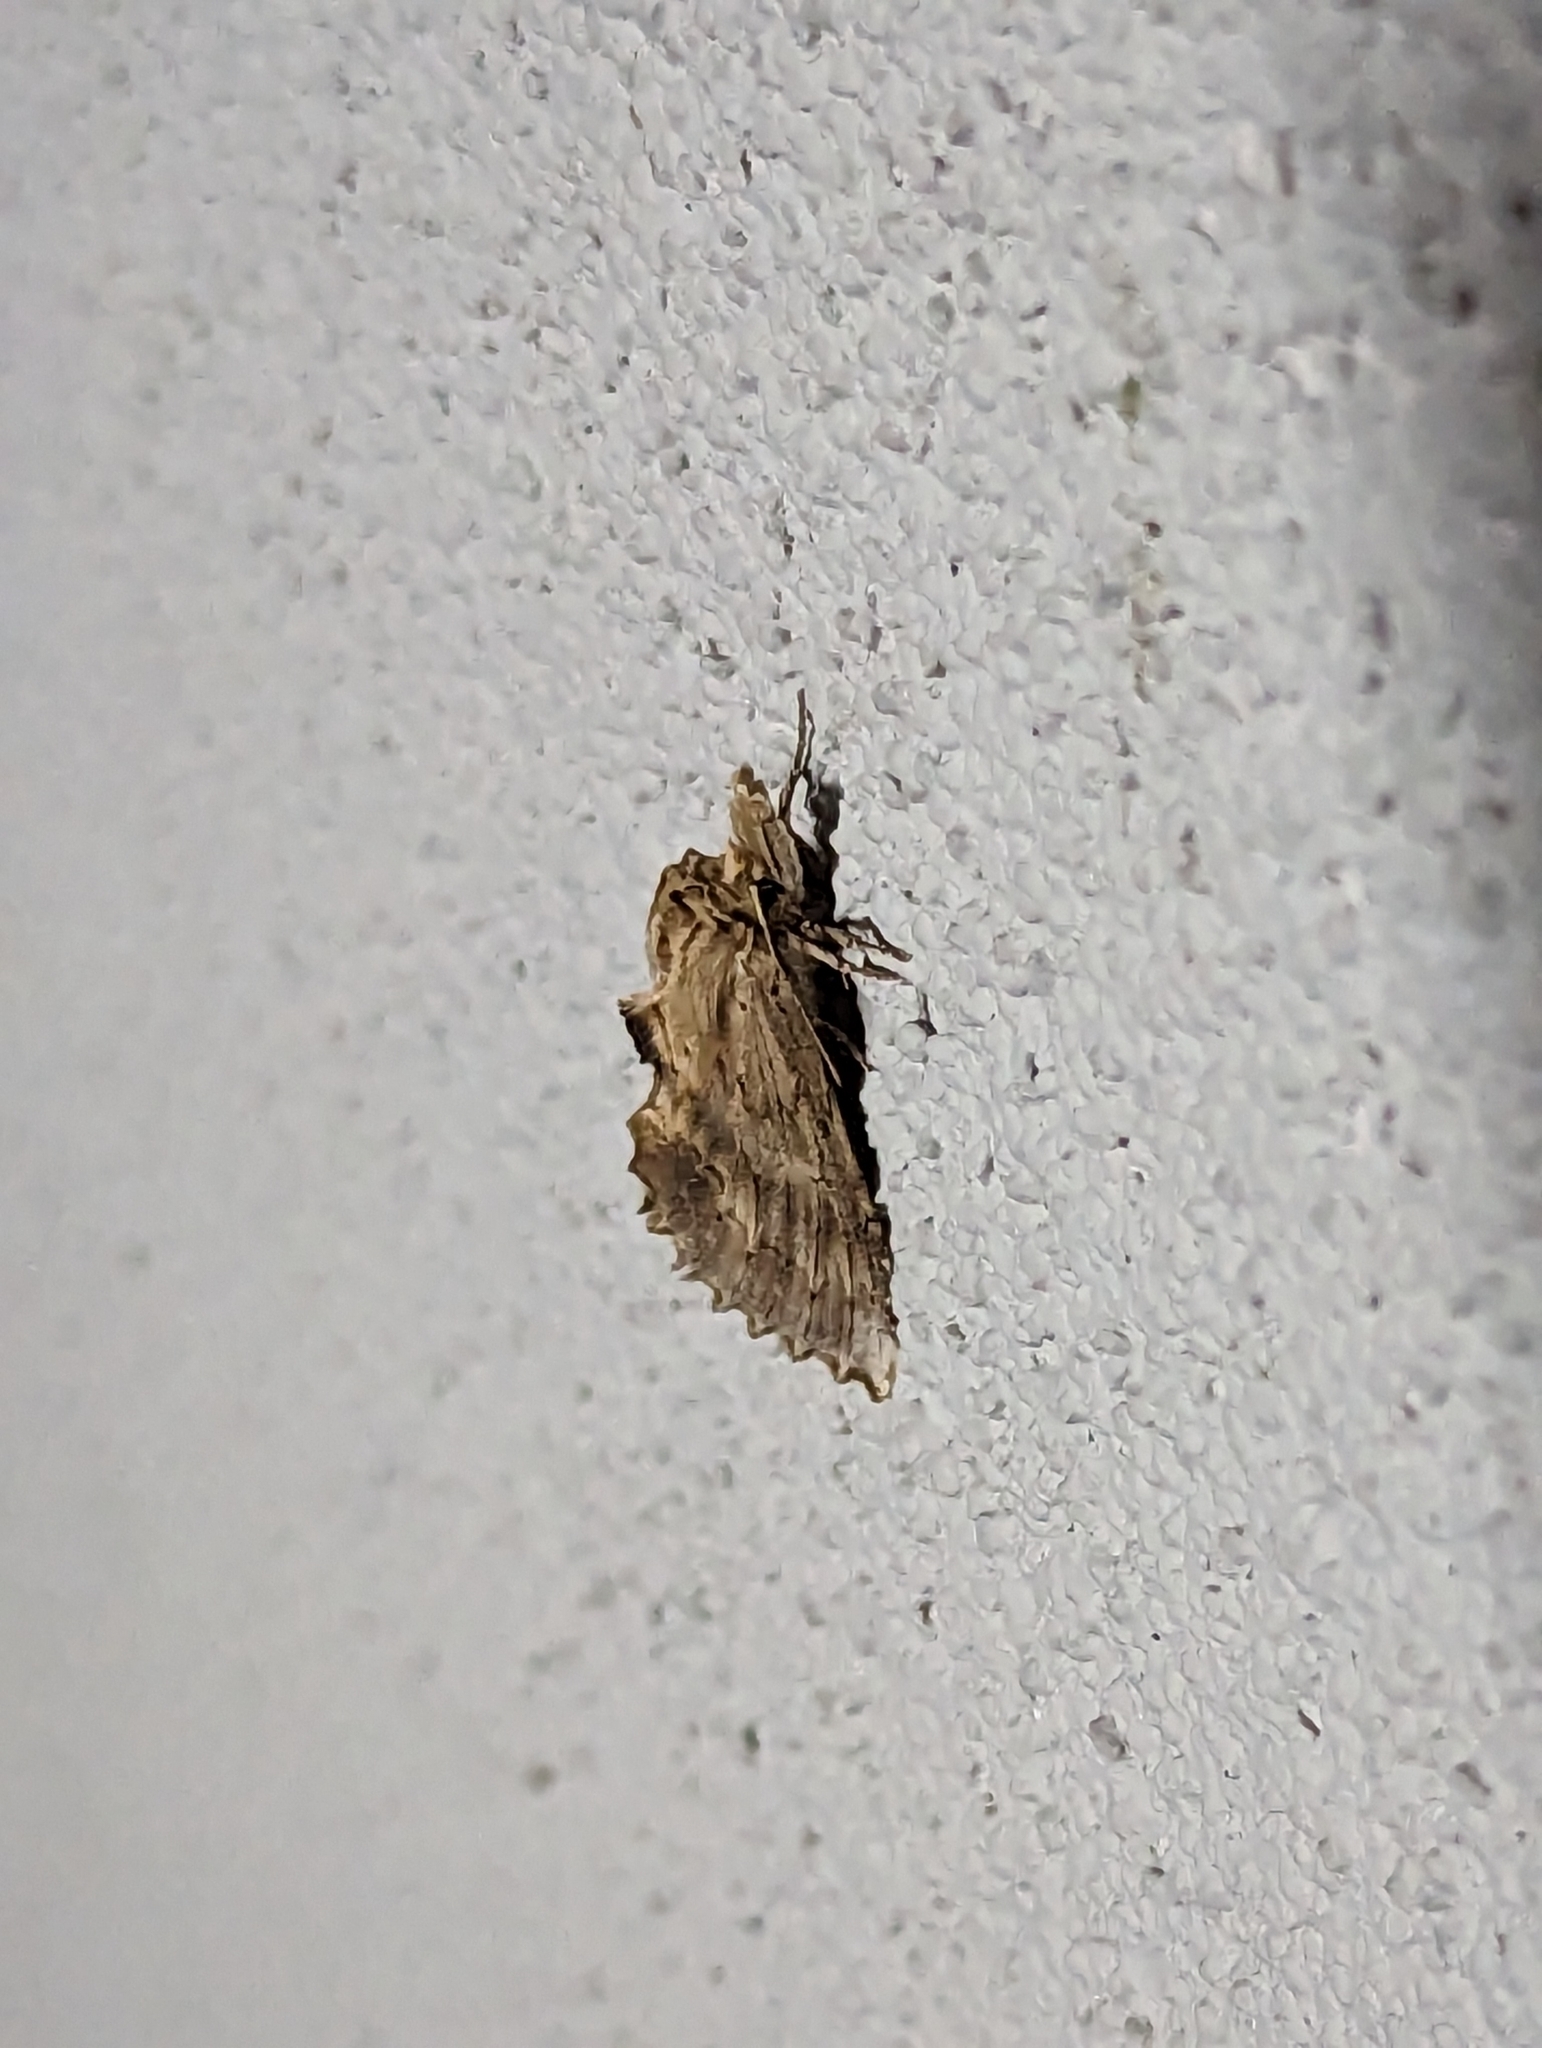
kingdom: Animalia
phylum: Arthropoda
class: Insecta
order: Lepidoptera
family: Notodontidae
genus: Pterostoma
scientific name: Pterostoma palpina
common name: Pale prominent
